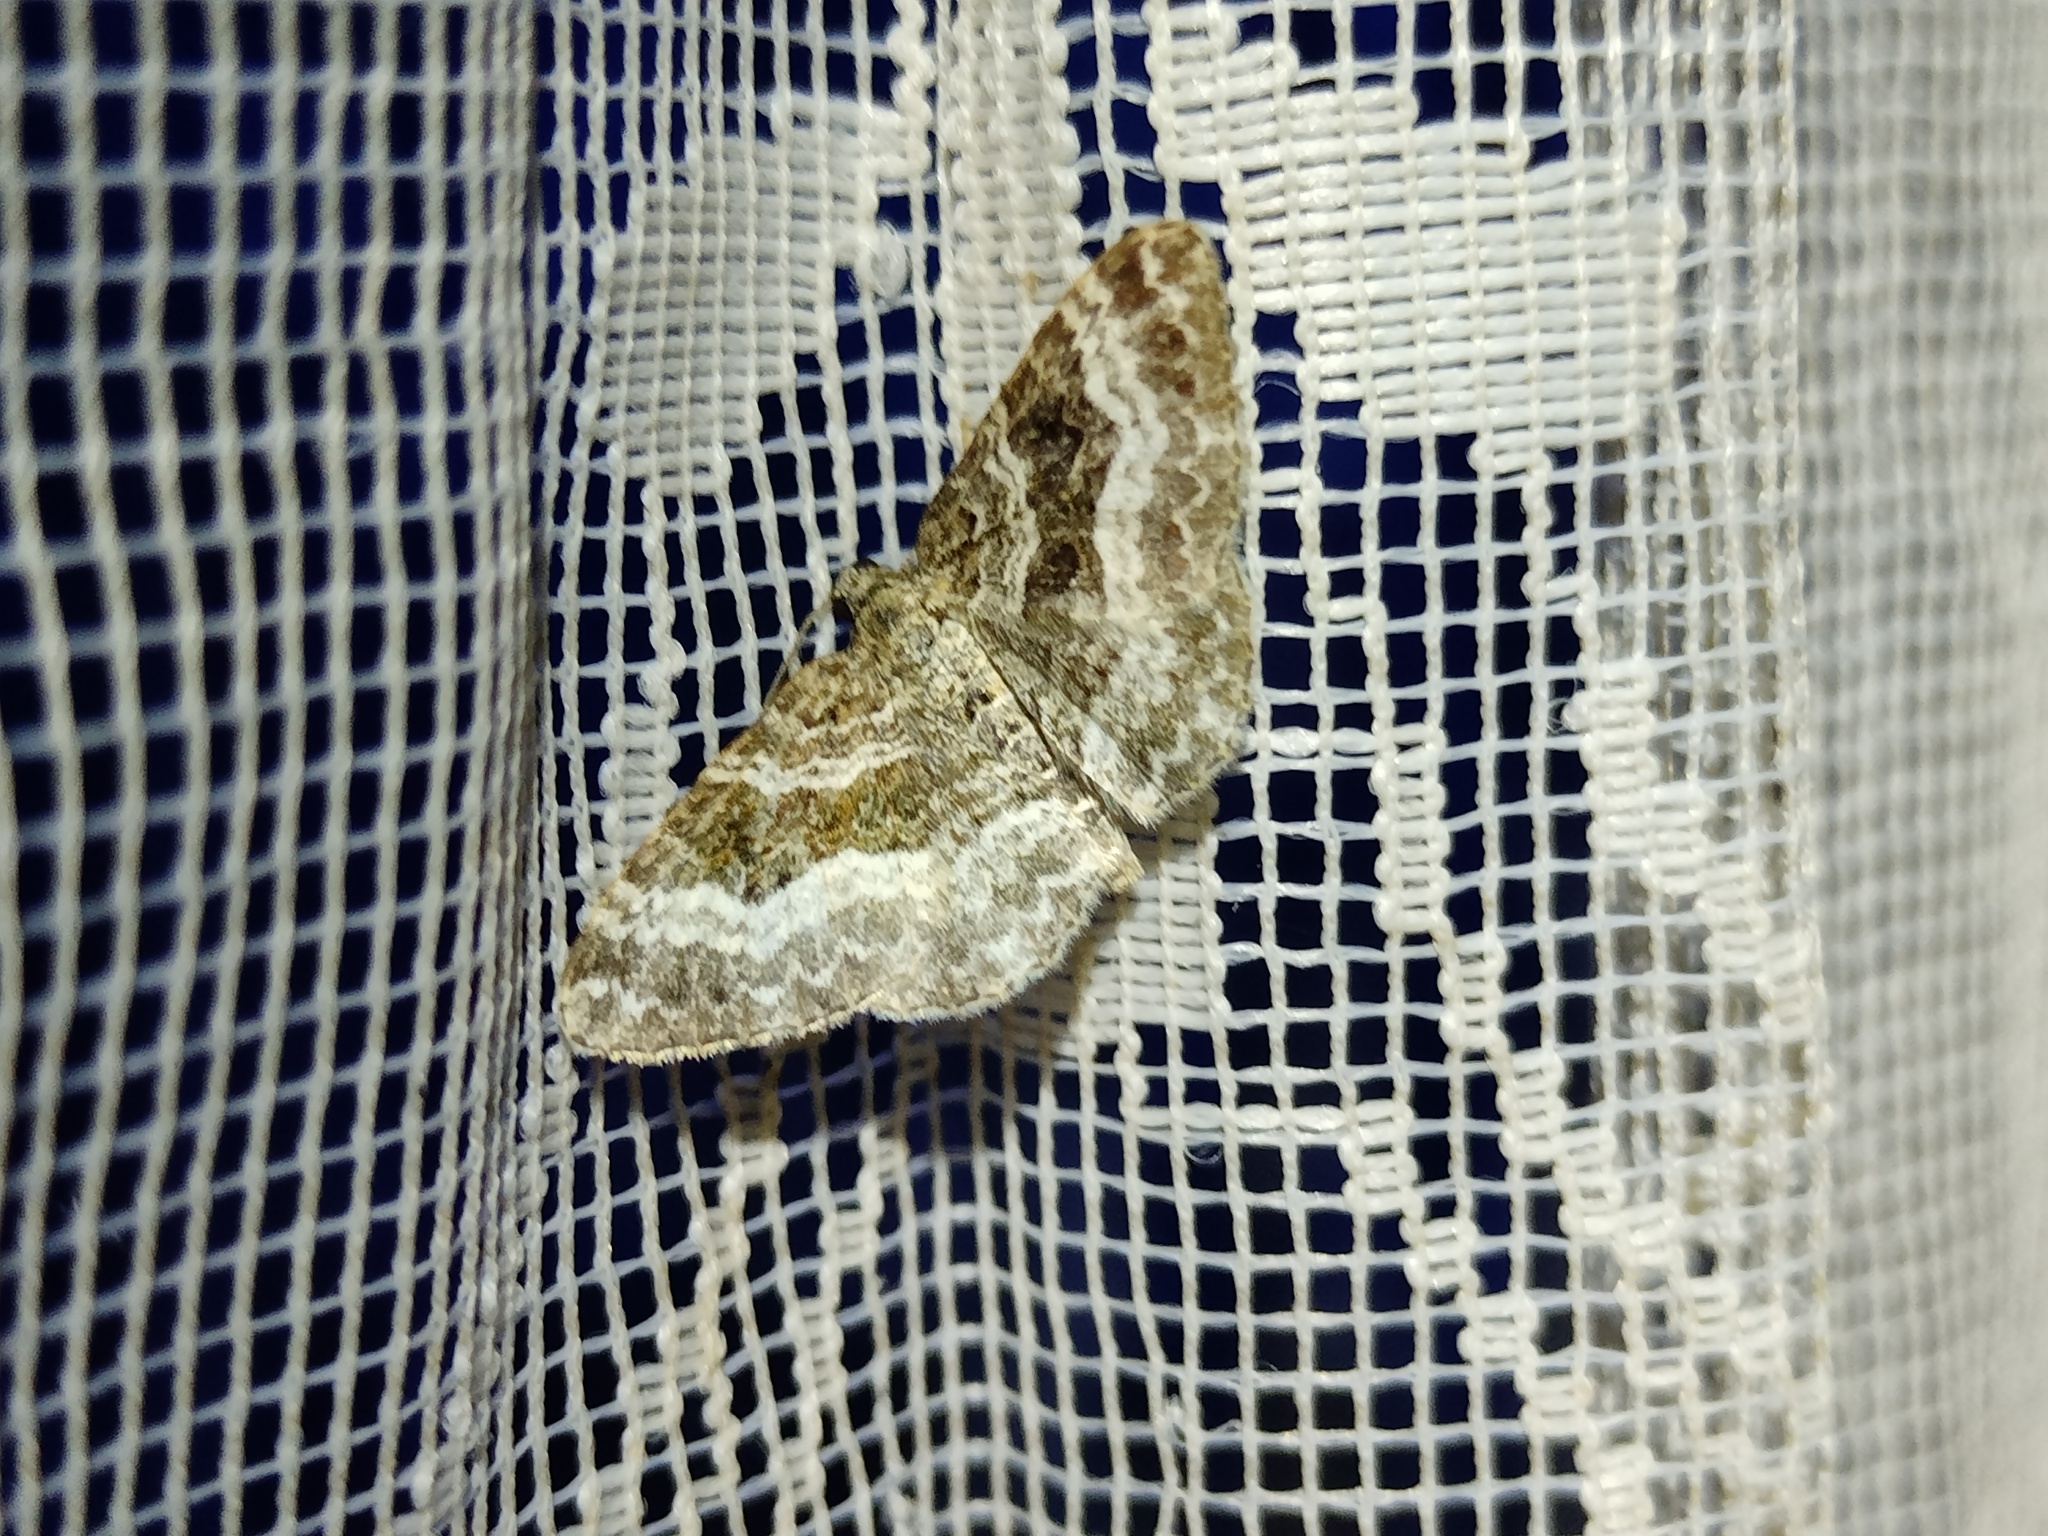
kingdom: Animalia
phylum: Arthropoda
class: Insecta
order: Lepidoptera
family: Geometridae
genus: Epirrhoe
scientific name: Epirrhoe alternata
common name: Common carpet
